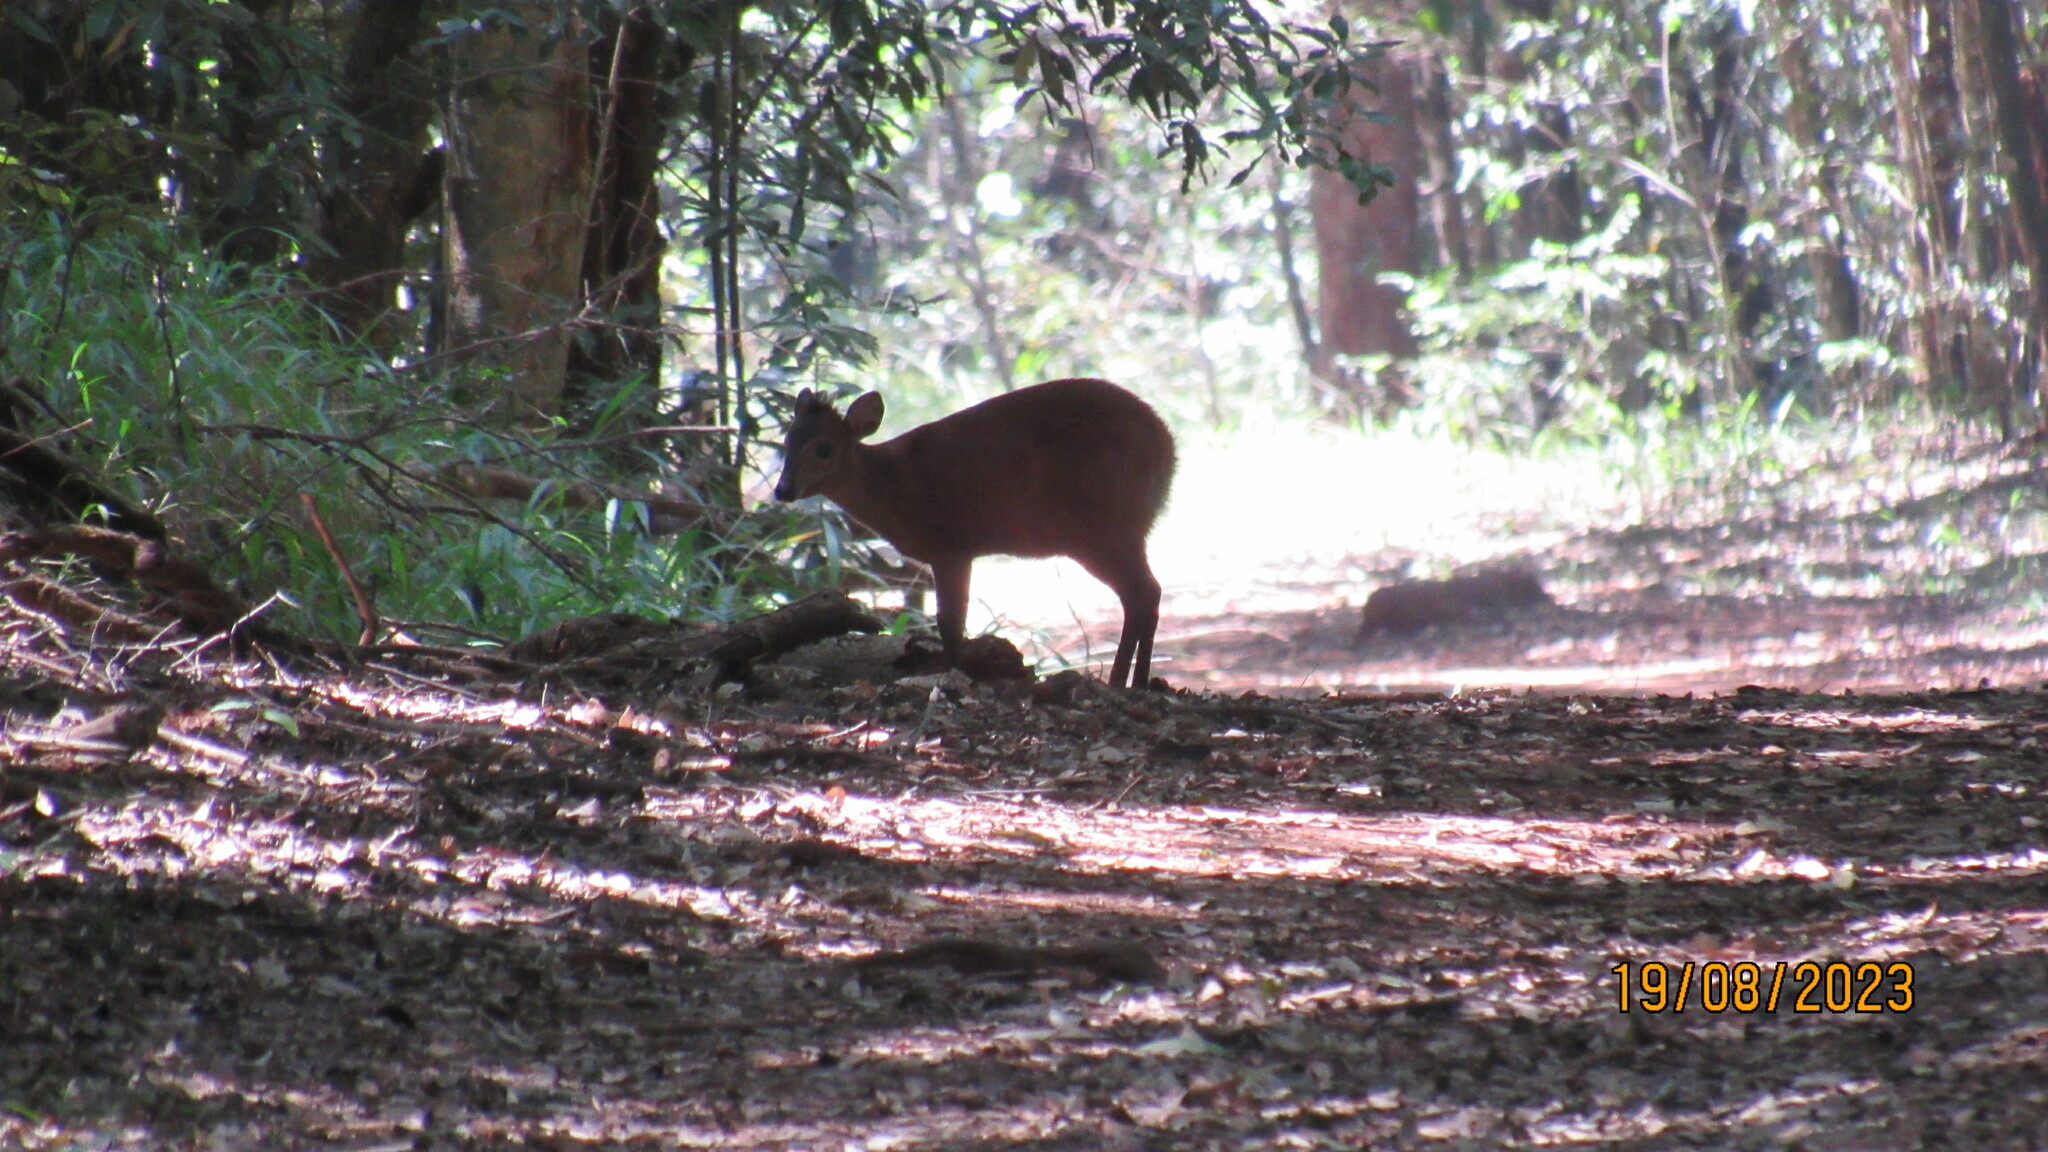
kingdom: Animalia
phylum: Chordata
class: Mammalia
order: Artiodactyla
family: Bovidae
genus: Cephalophus
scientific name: Cephalophus natalensis
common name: Red duiker
